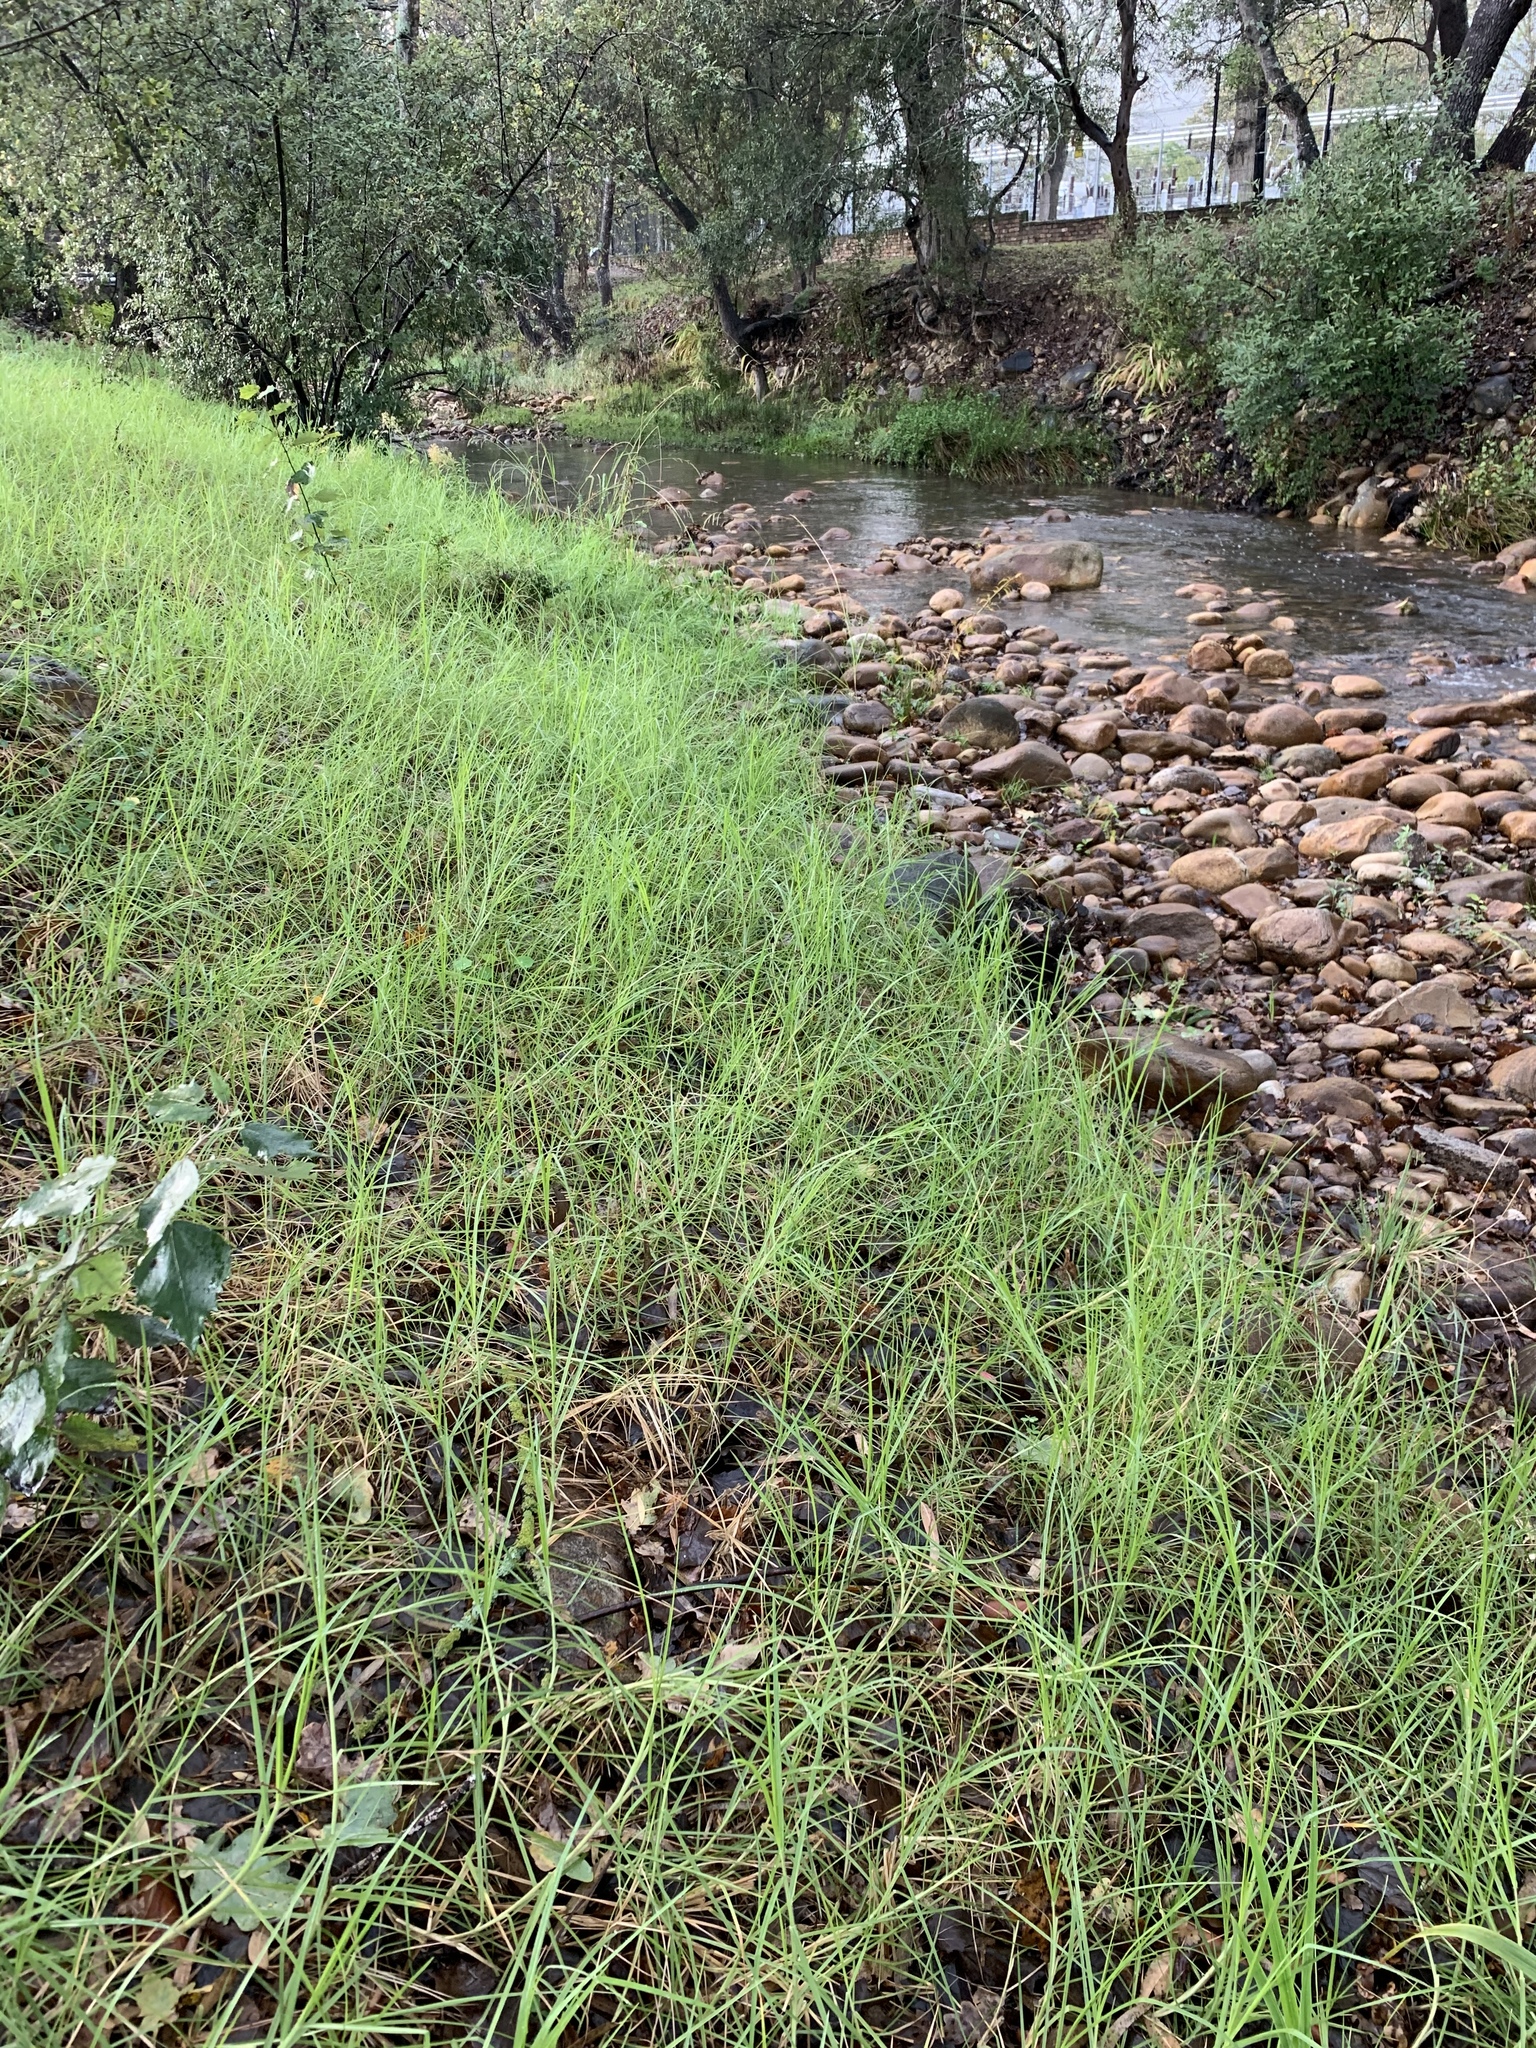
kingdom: Plantae
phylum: Tracheophyta
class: Liliopsida
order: Poales
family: Poaceae
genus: Cenchrus
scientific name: Cenchrus clandestinus
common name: Kikuyugrass
